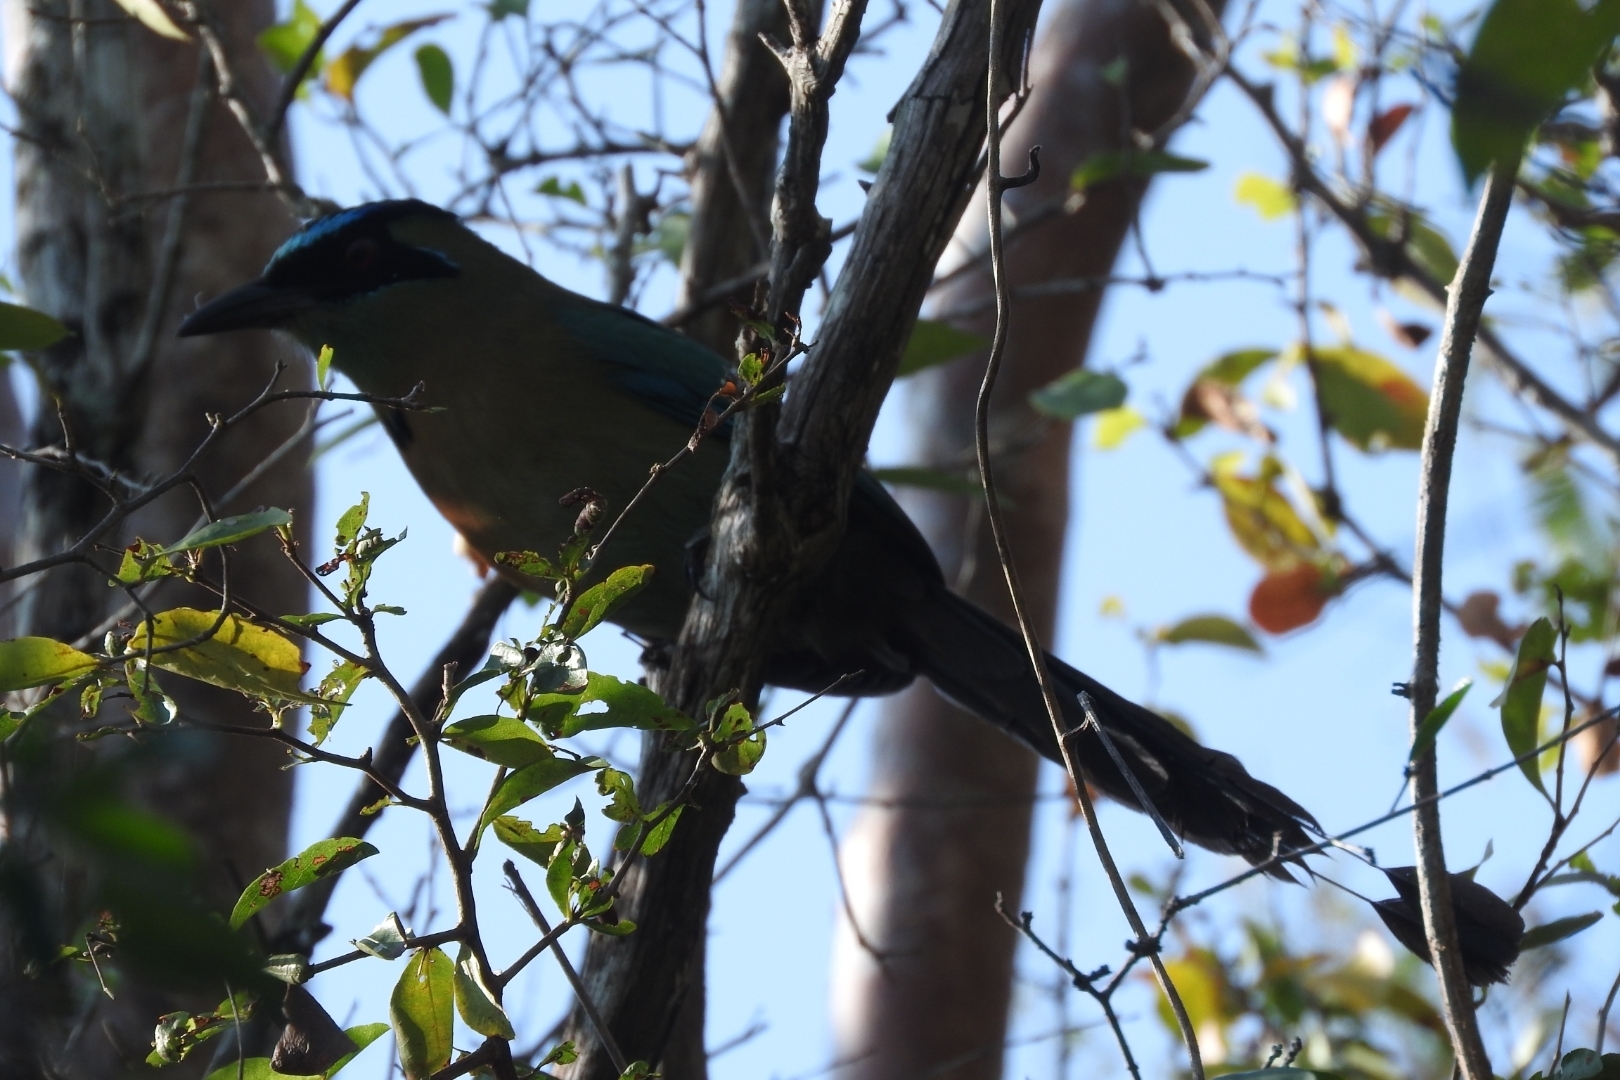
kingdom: Animalia
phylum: Chordata
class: Aves
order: Coraciiformes
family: Momotidae
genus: Momotus
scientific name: Momotus lessonii
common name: Lesson's motmot
